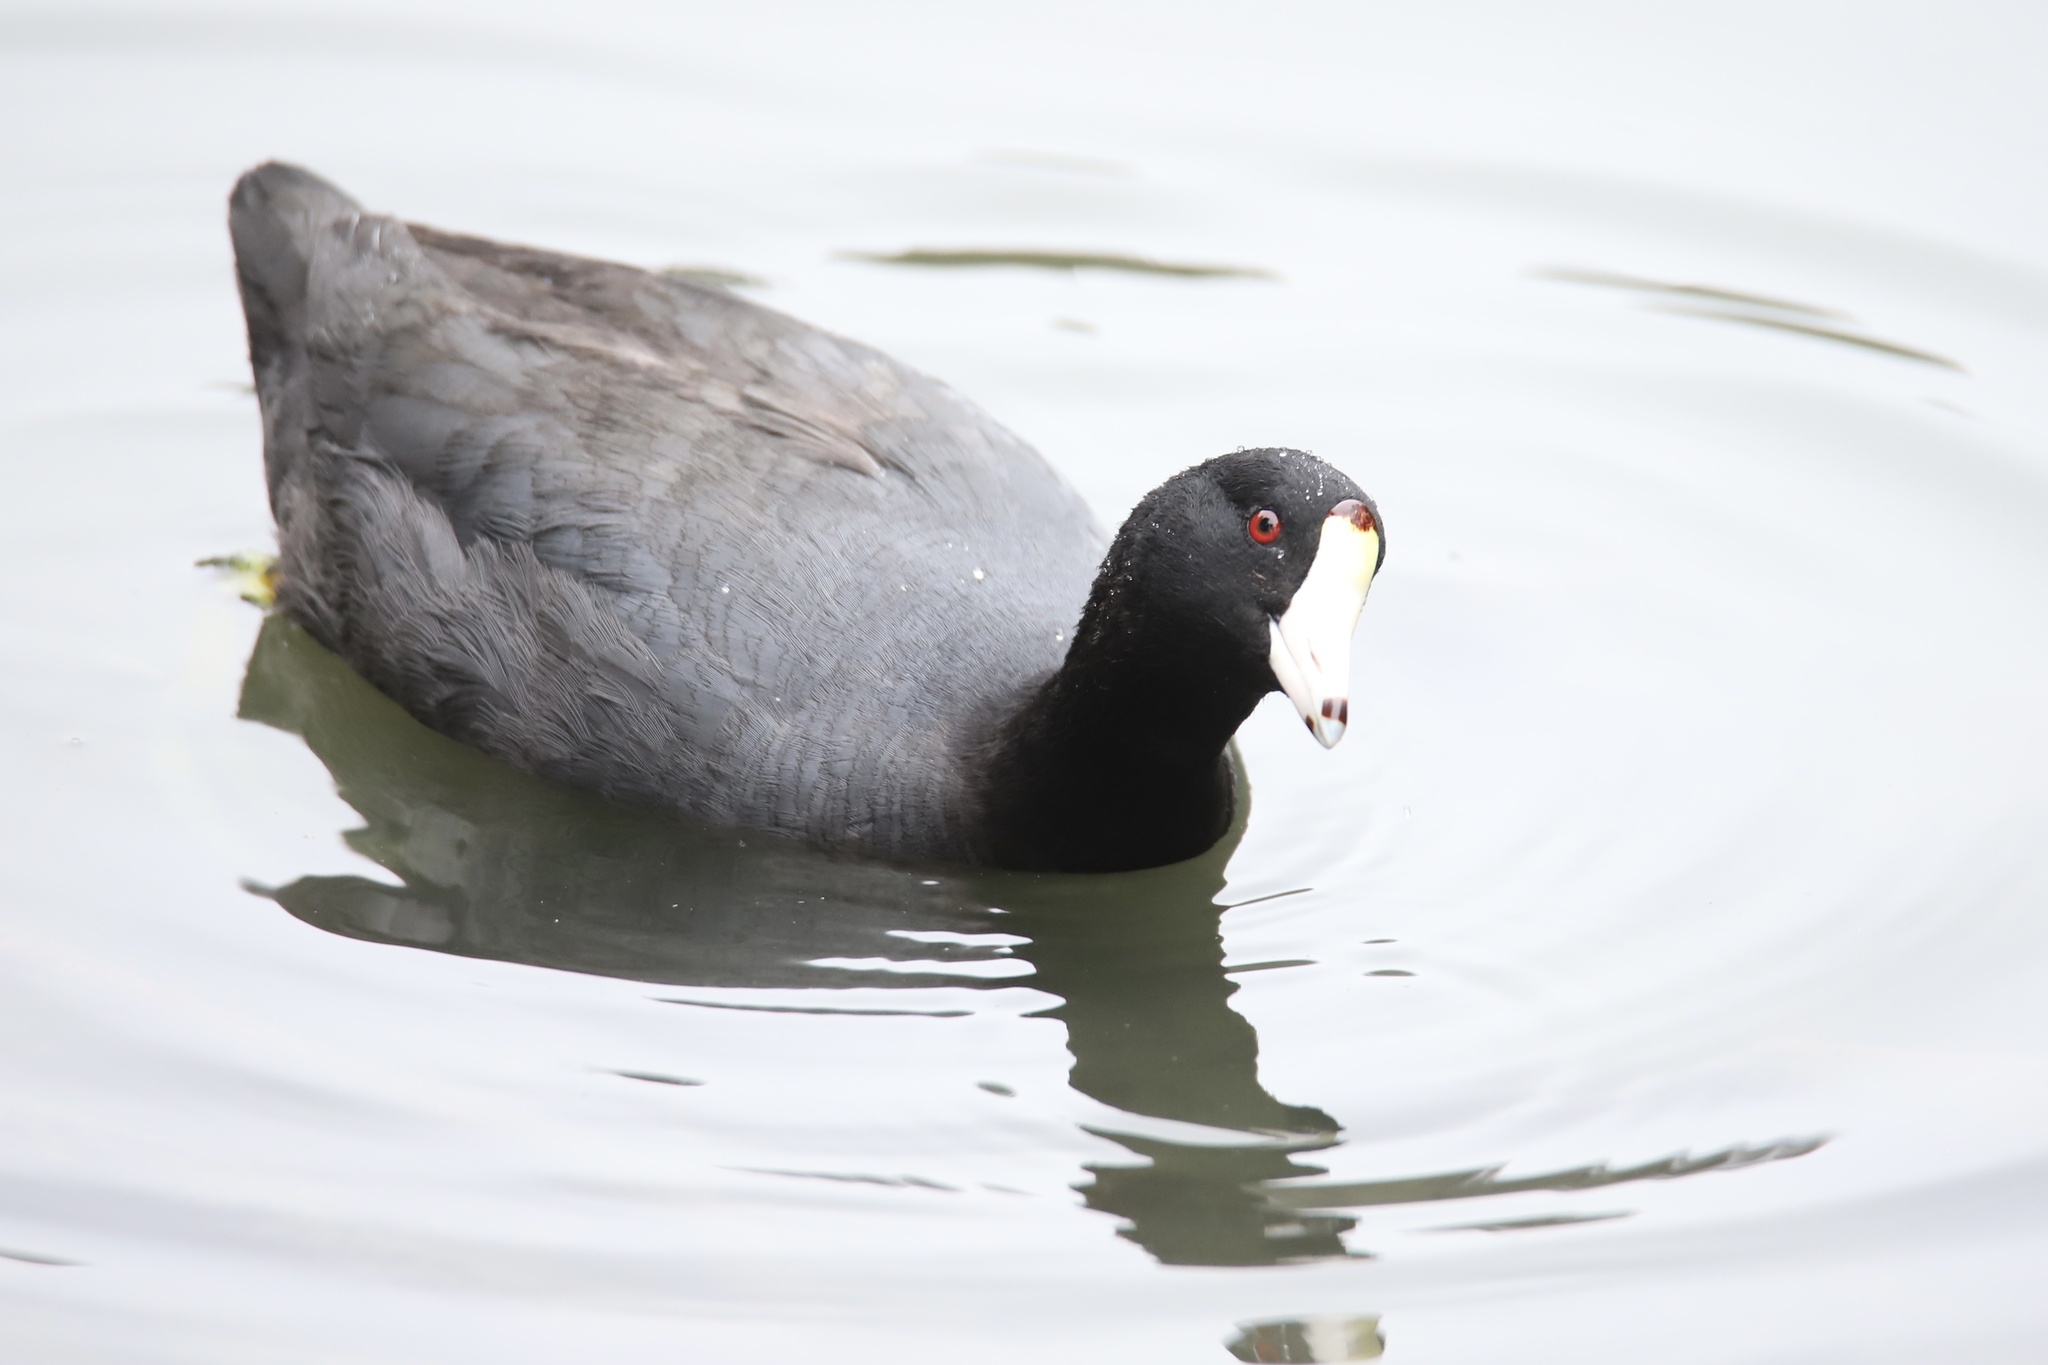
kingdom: Animalia
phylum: Chordata
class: Aves
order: Gruiformes
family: Rallidae
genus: Fulica
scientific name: Fulica americana
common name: American coot
